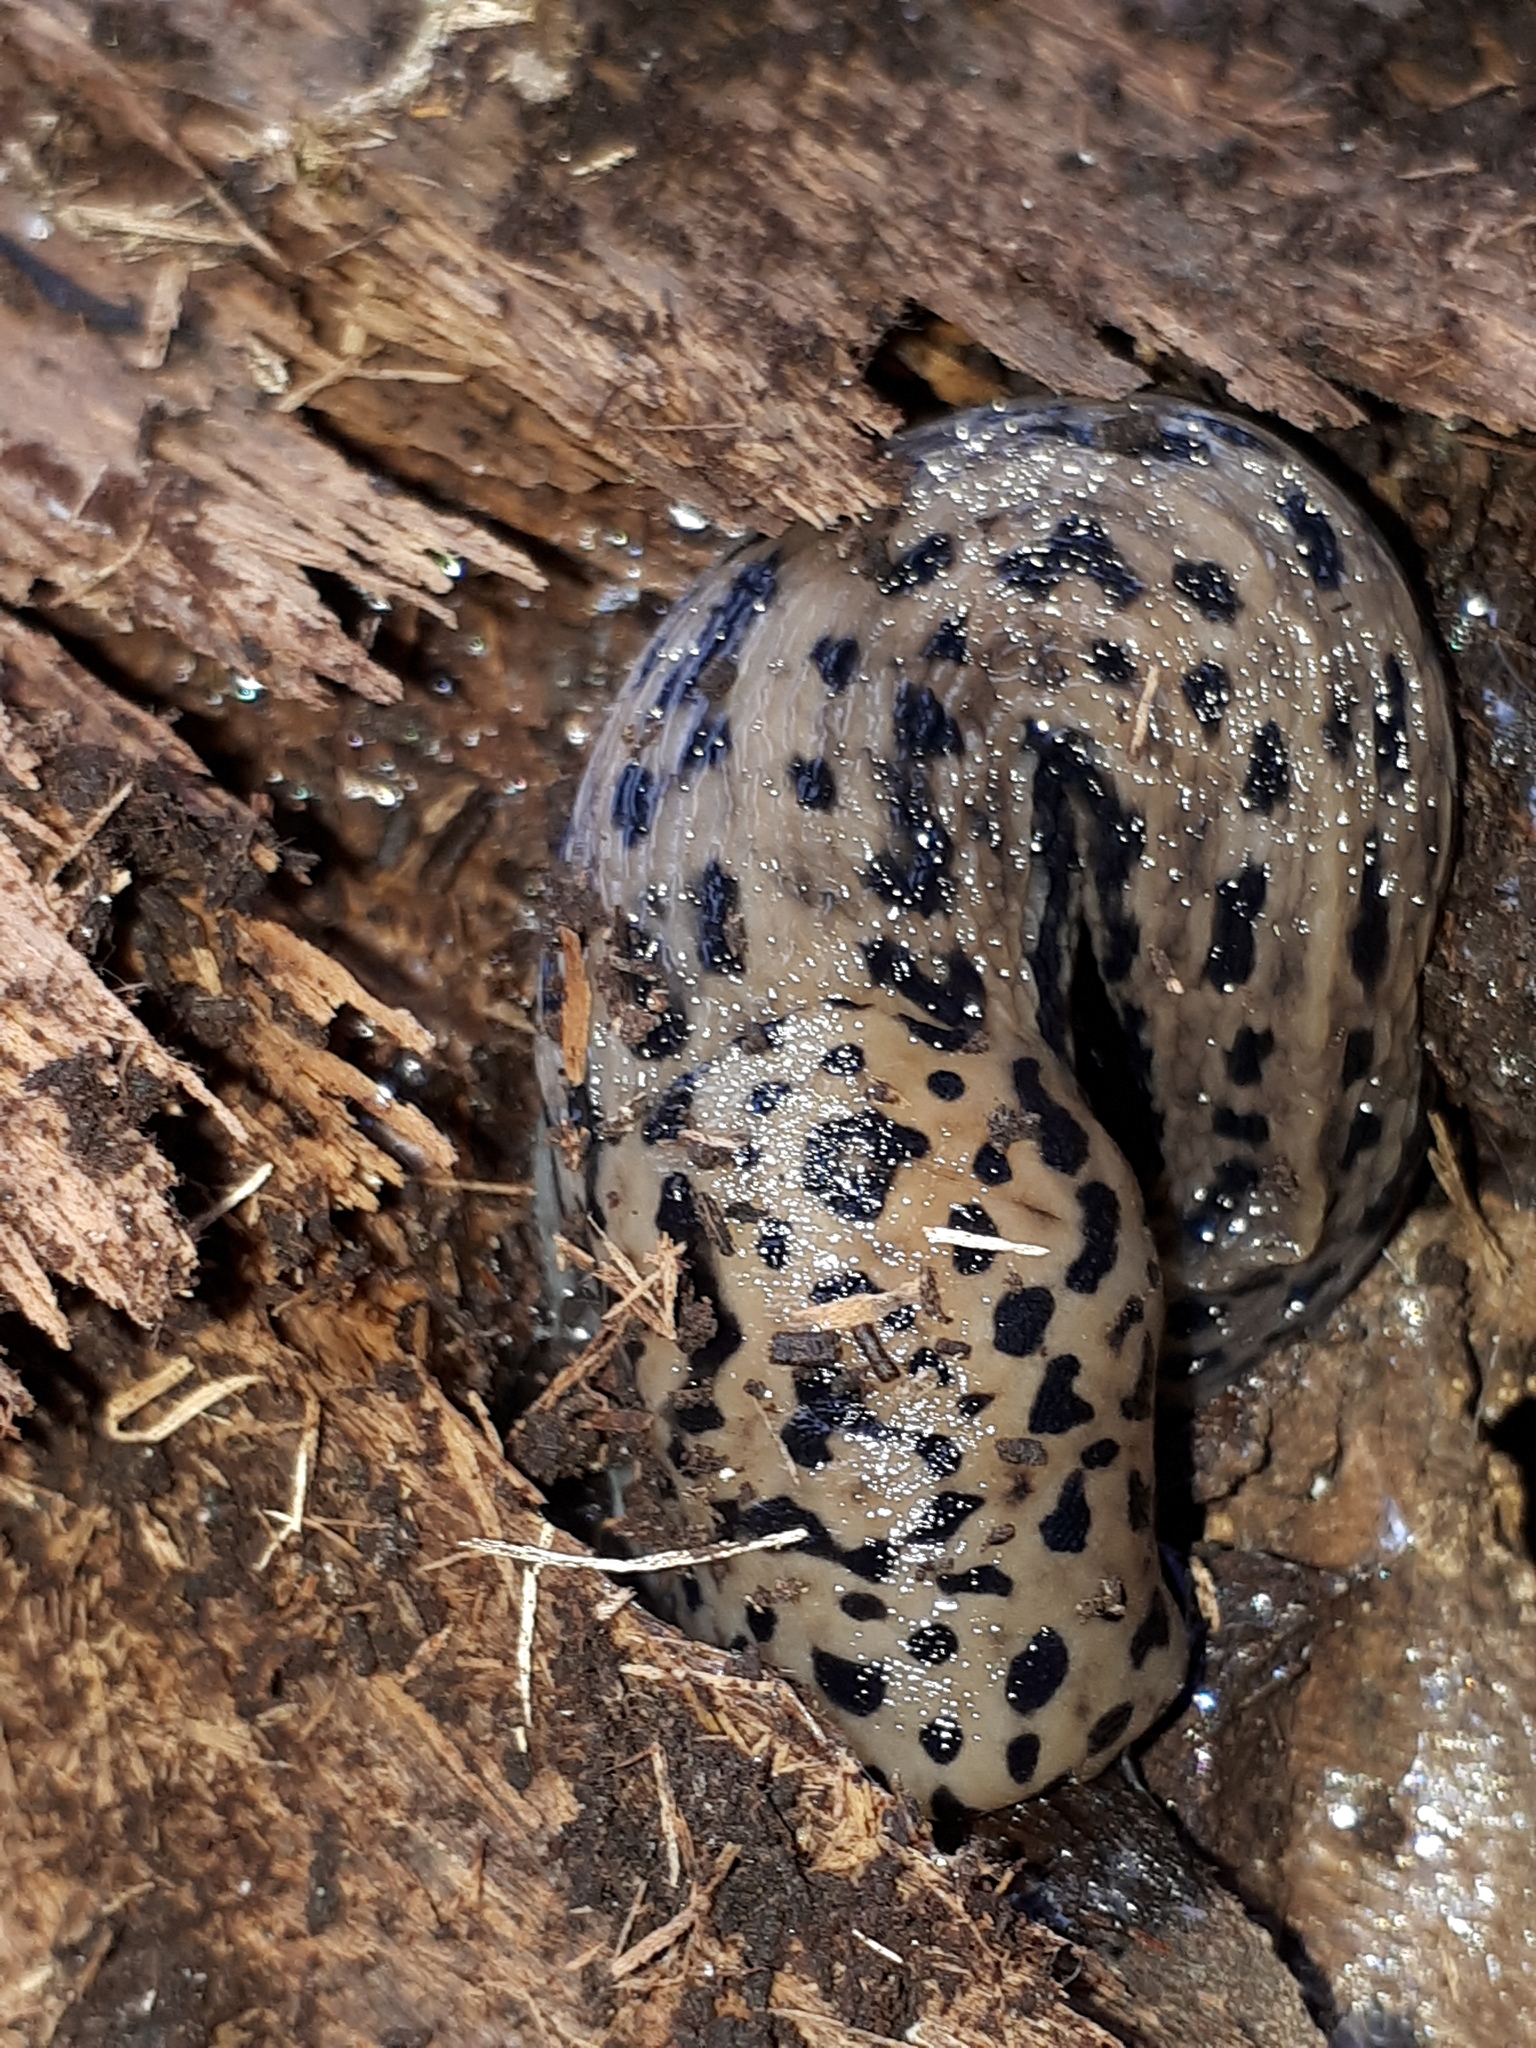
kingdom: Animalia
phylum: Mollusca
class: Gastropoda
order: Stylommatophora
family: Limacidae
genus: Limax
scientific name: Limax maximus
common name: Great grey slug
